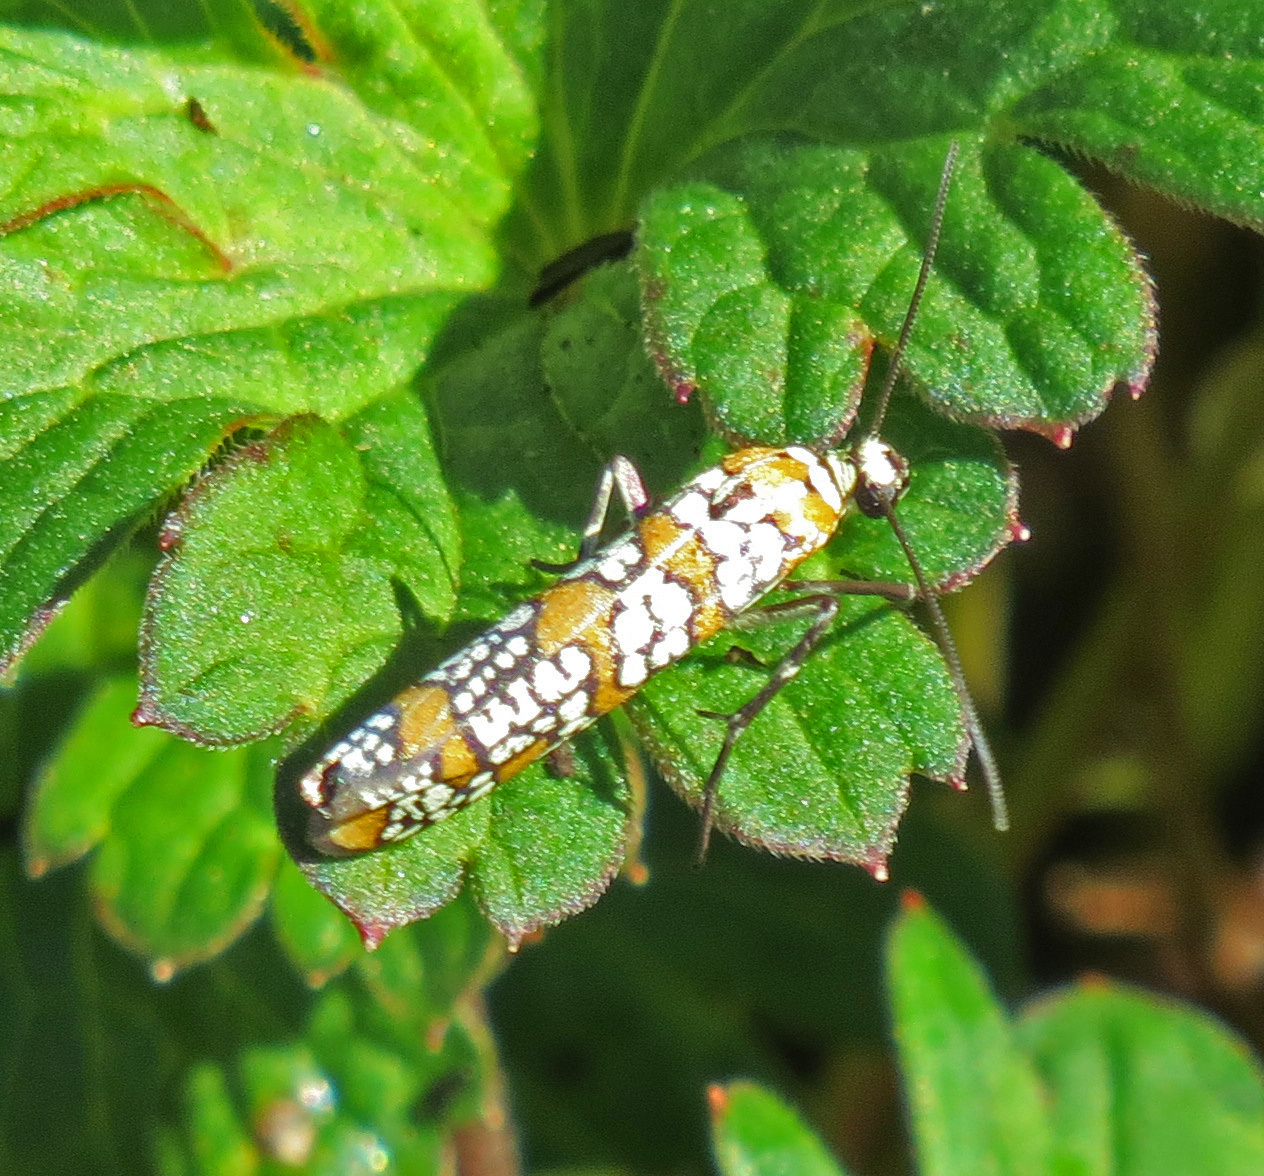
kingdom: Animalia
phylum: Arthropoda
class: Insecta
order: Lepidoptera
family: Attevidae
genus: Atteva
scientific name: Atteva punctella
